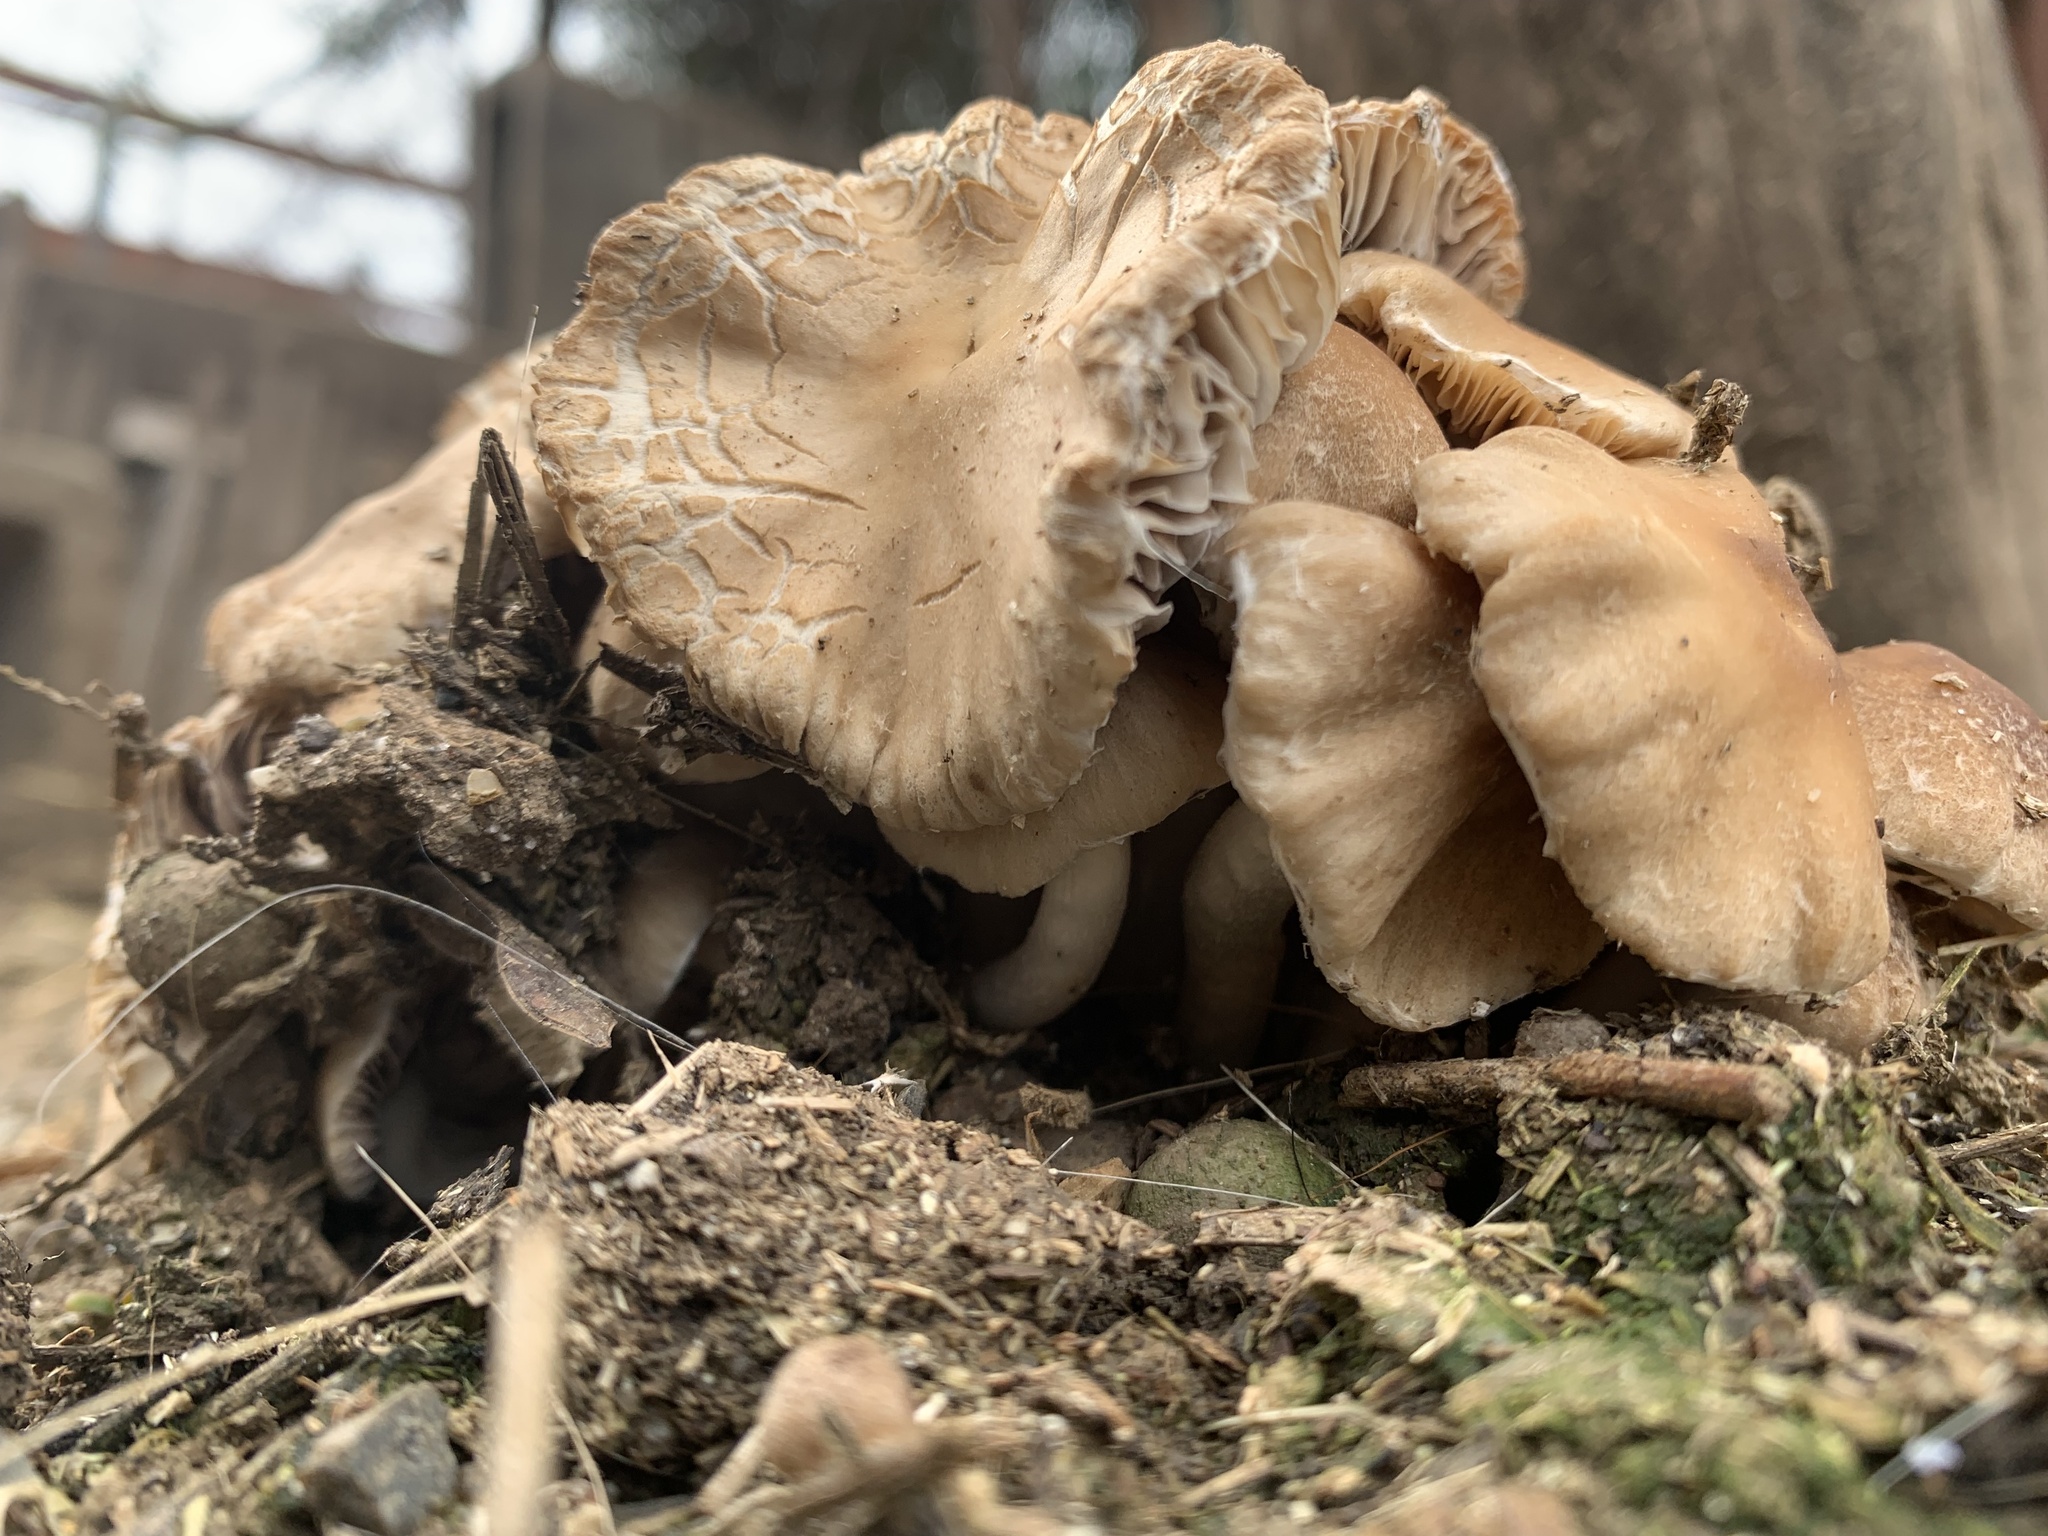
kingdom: Fungi
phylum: Basidiomycota
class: Agaricomycetes
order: Agaricales
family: Psathyrellaceae
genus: Candolleomyces
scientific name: Candolleomyces candolleanus
